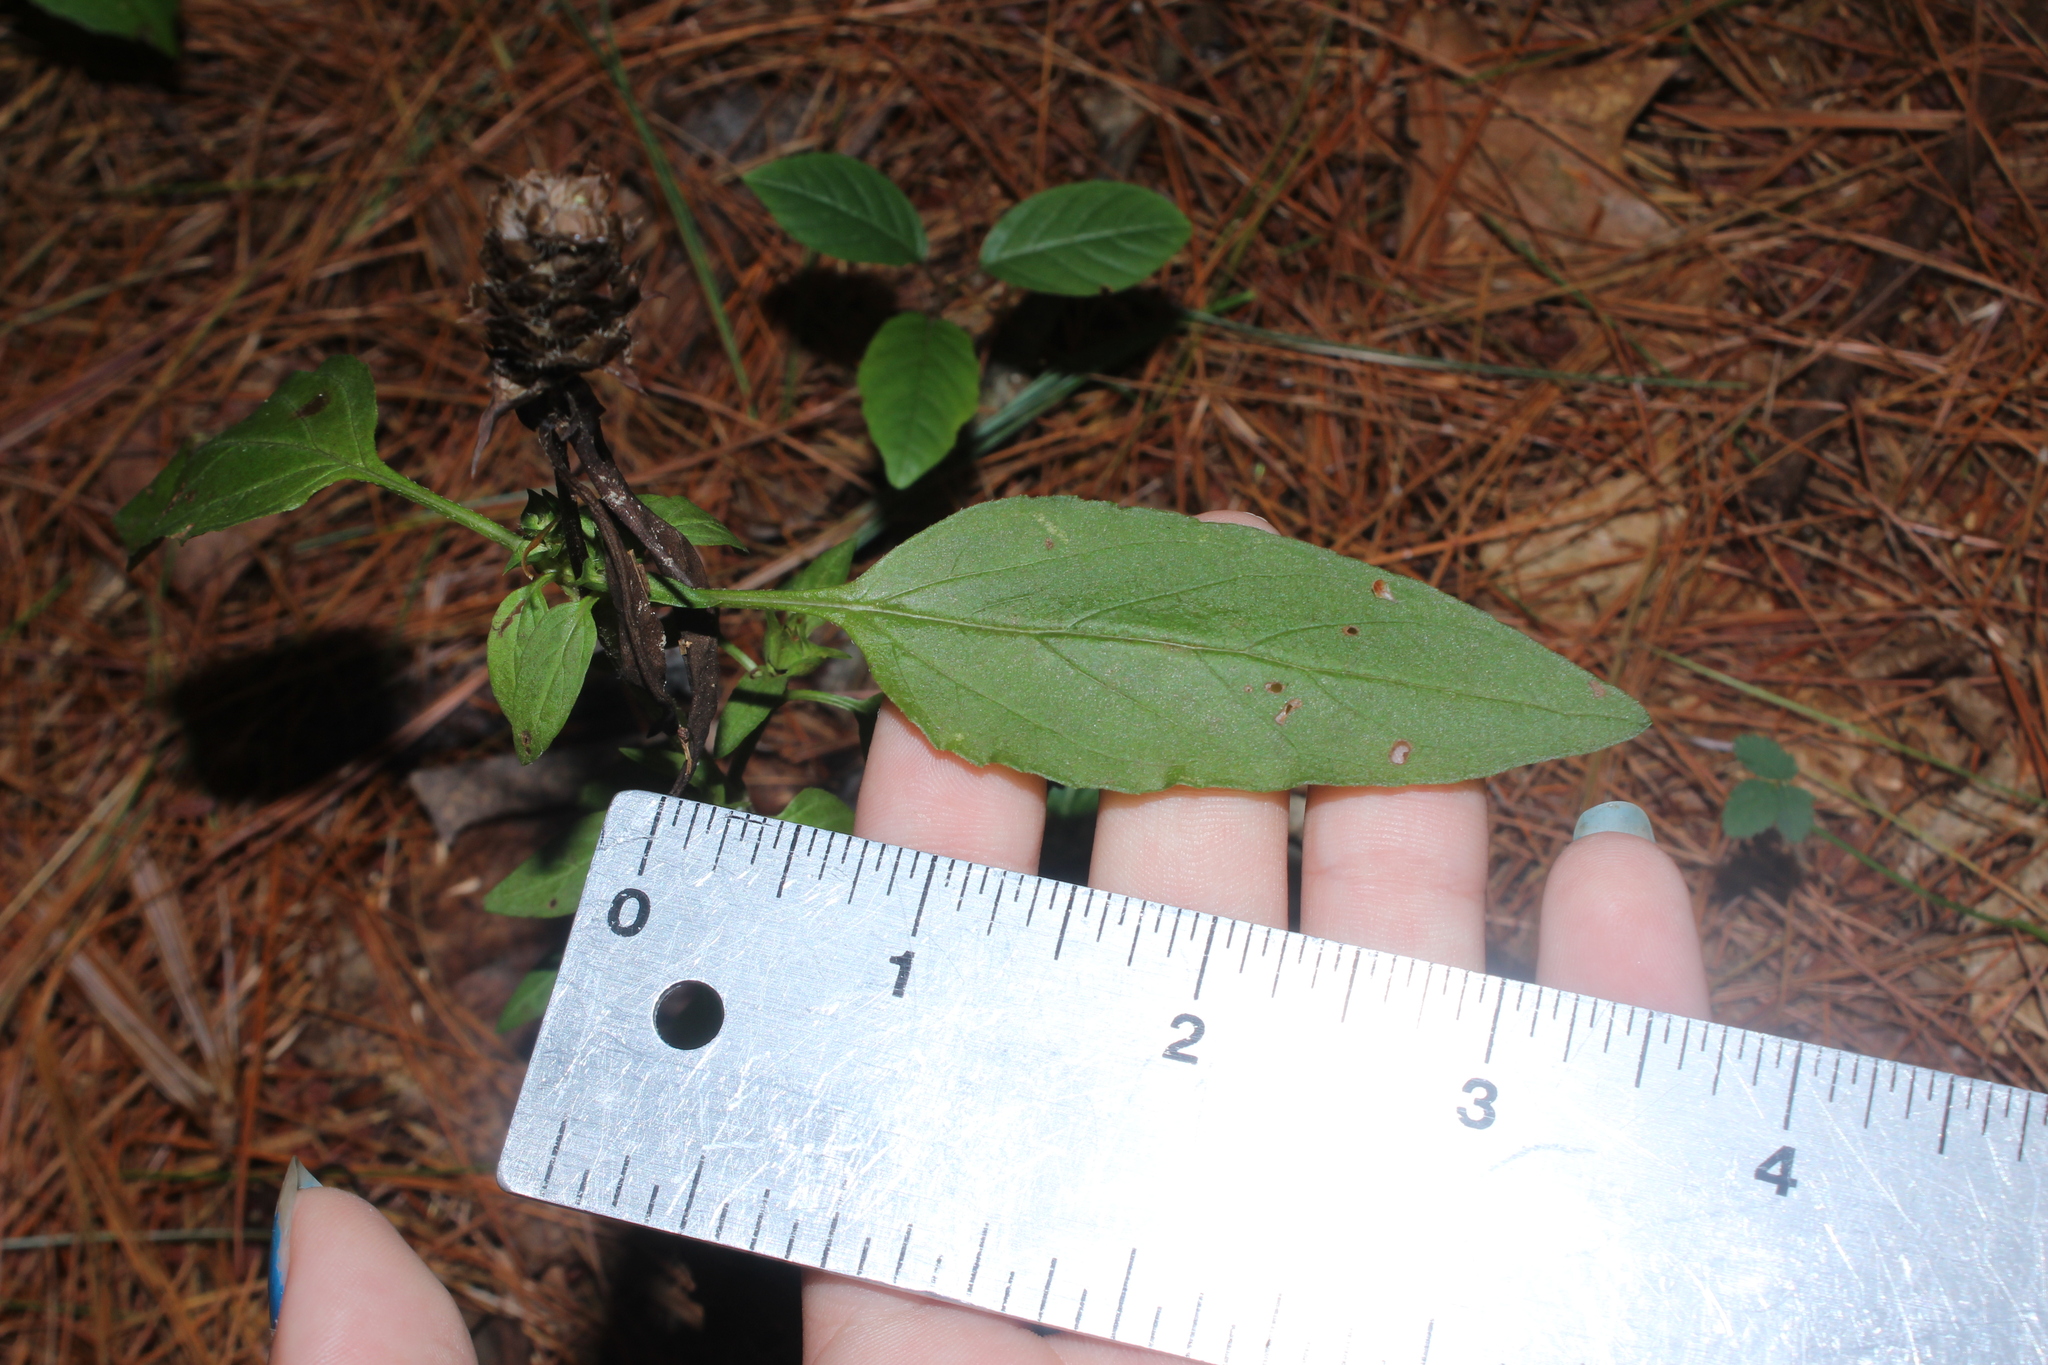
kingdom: Plantae
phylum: Tracheophyta
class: Magnoliopsida
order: Lamiales
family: Lamiaceae
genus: Prunella
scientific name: Prunella vulgaris
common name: Heal-all
